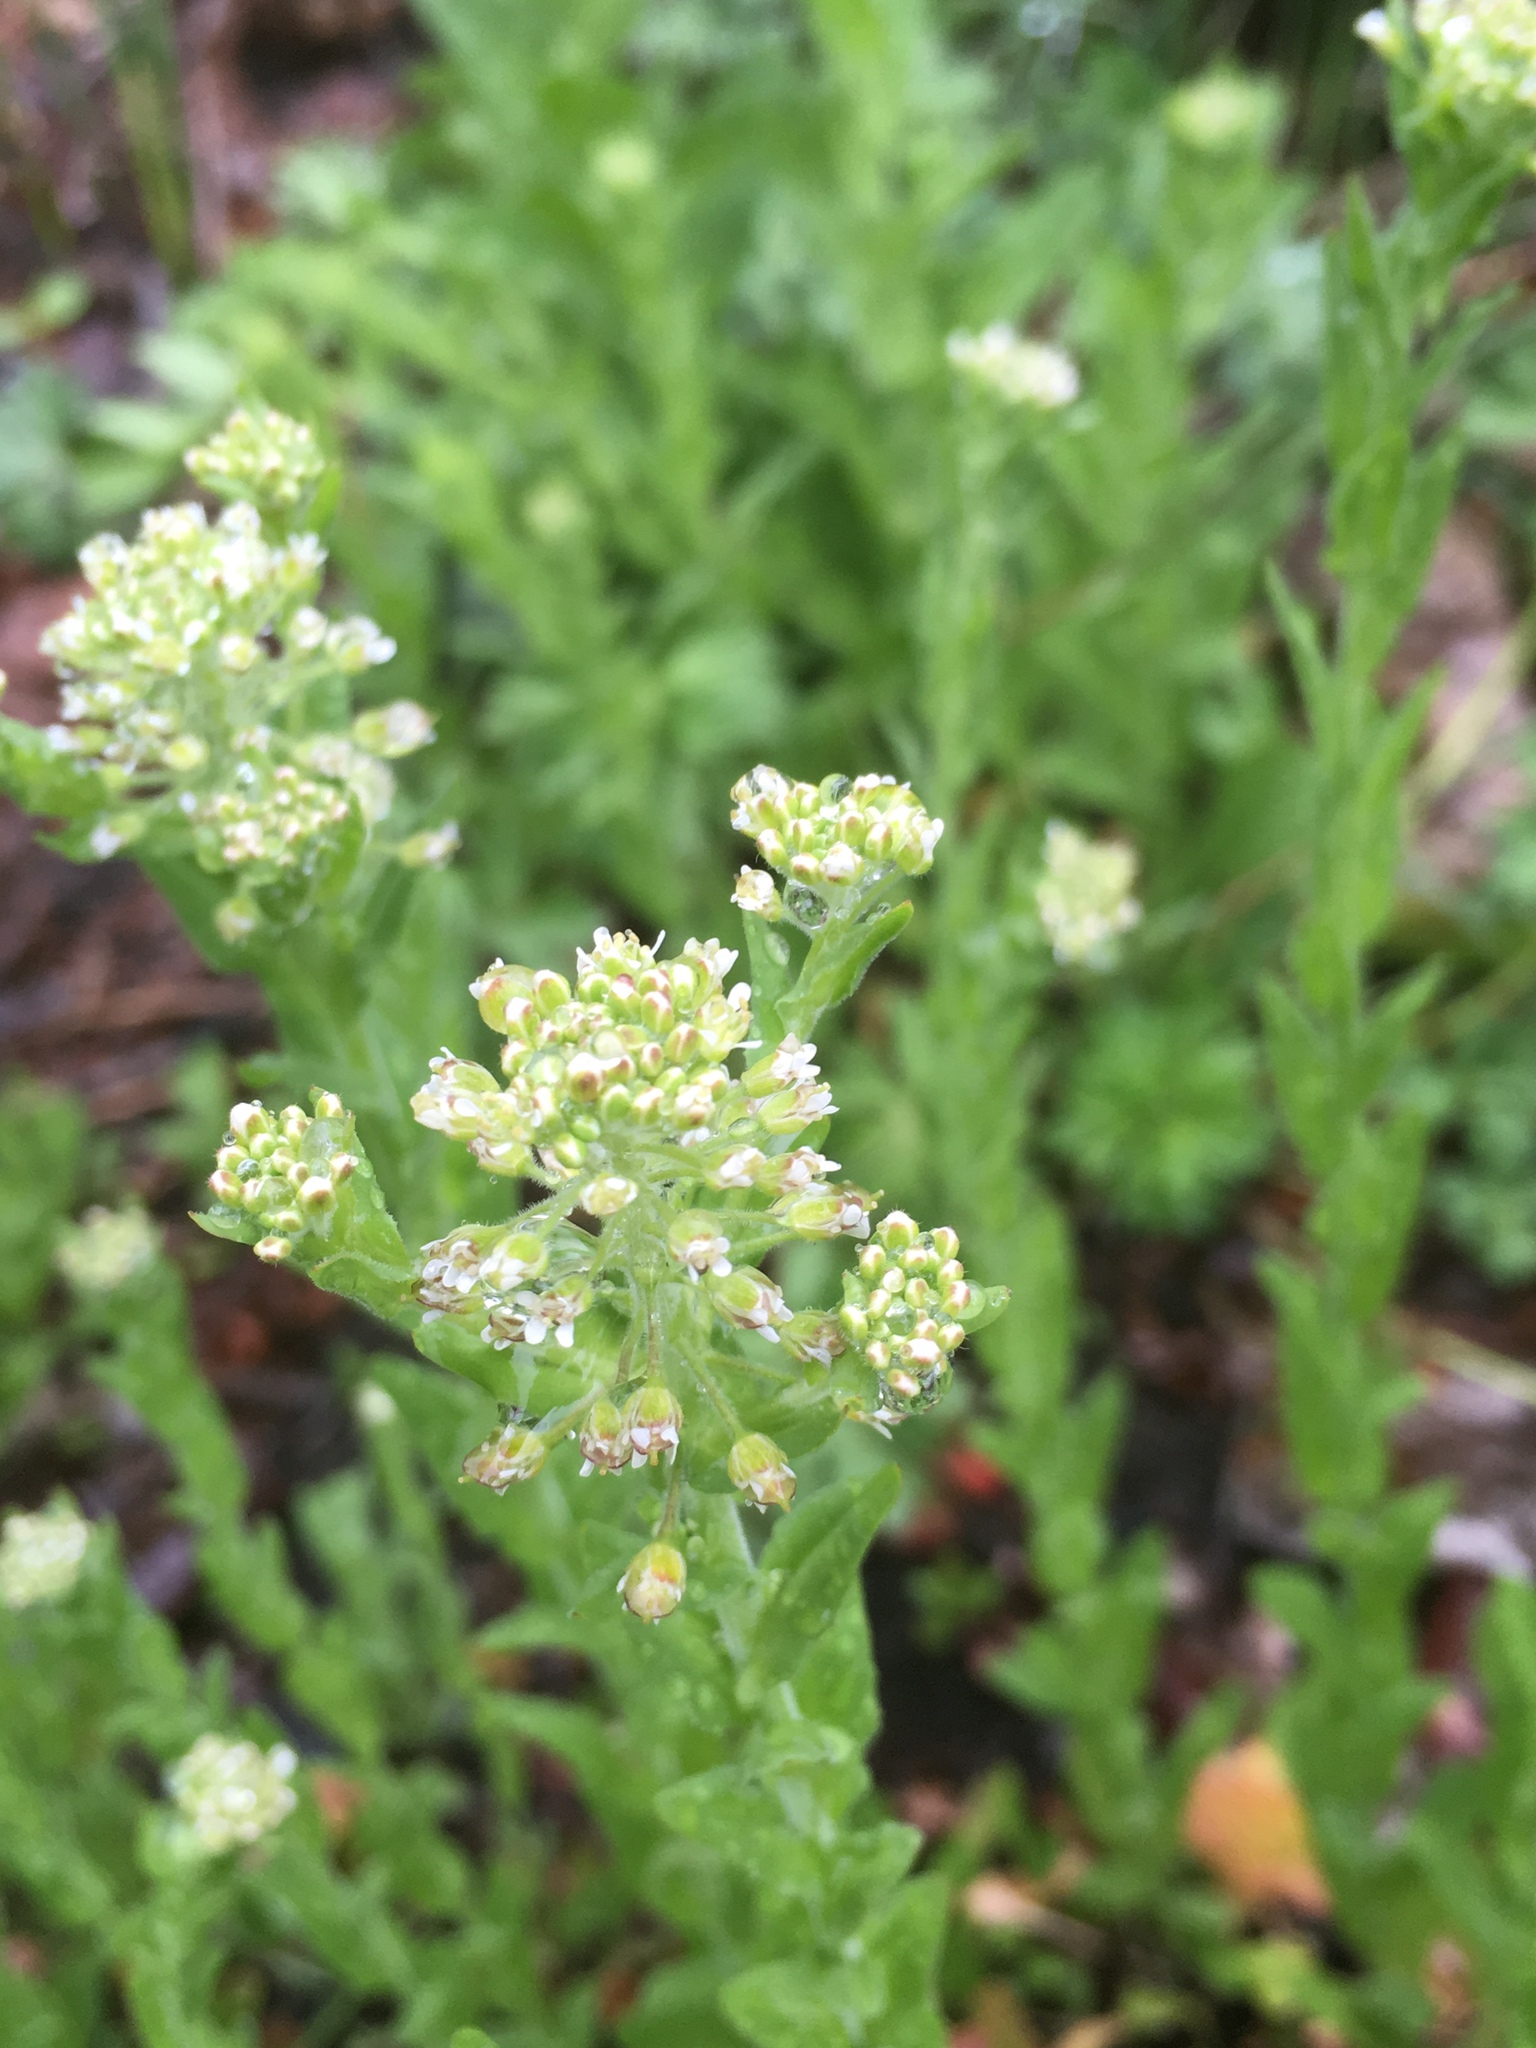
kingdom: Plantae
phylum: Tracheophyta
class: Magnoliopsida
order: Brassicales
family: Brassicaceae
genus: Lepidium
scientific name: Lepidium campestre
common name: Field pepperwort
